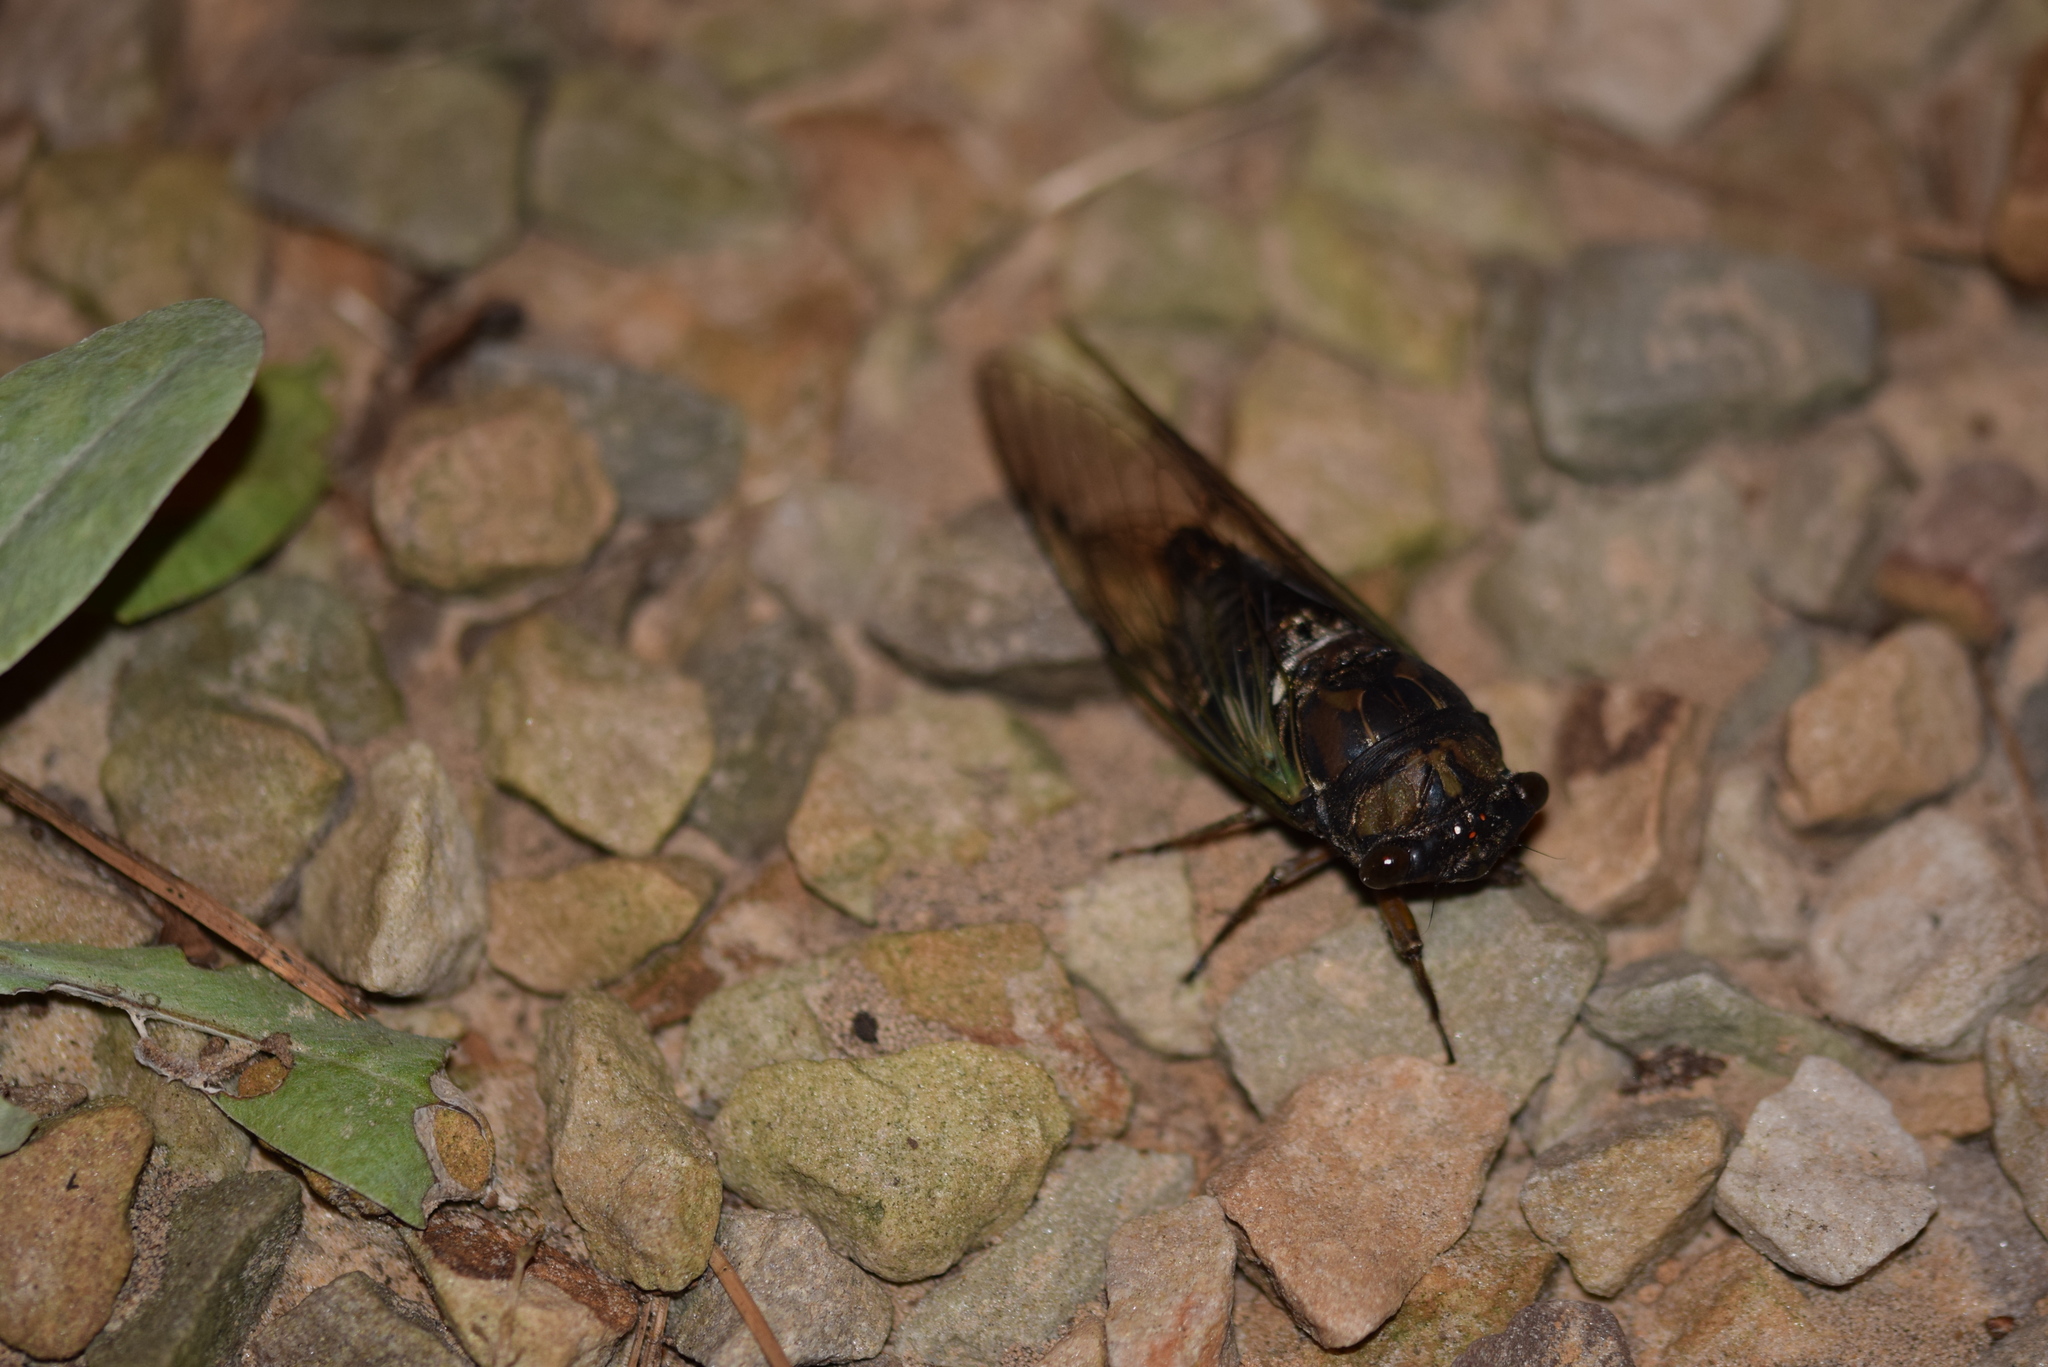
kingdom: Animalia
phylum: Arthropoda
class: Insecta
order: Hemiptera
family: Cicadidae
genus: Neotibicen
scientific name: Neotibicen lyricen
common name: Lyric cicada
